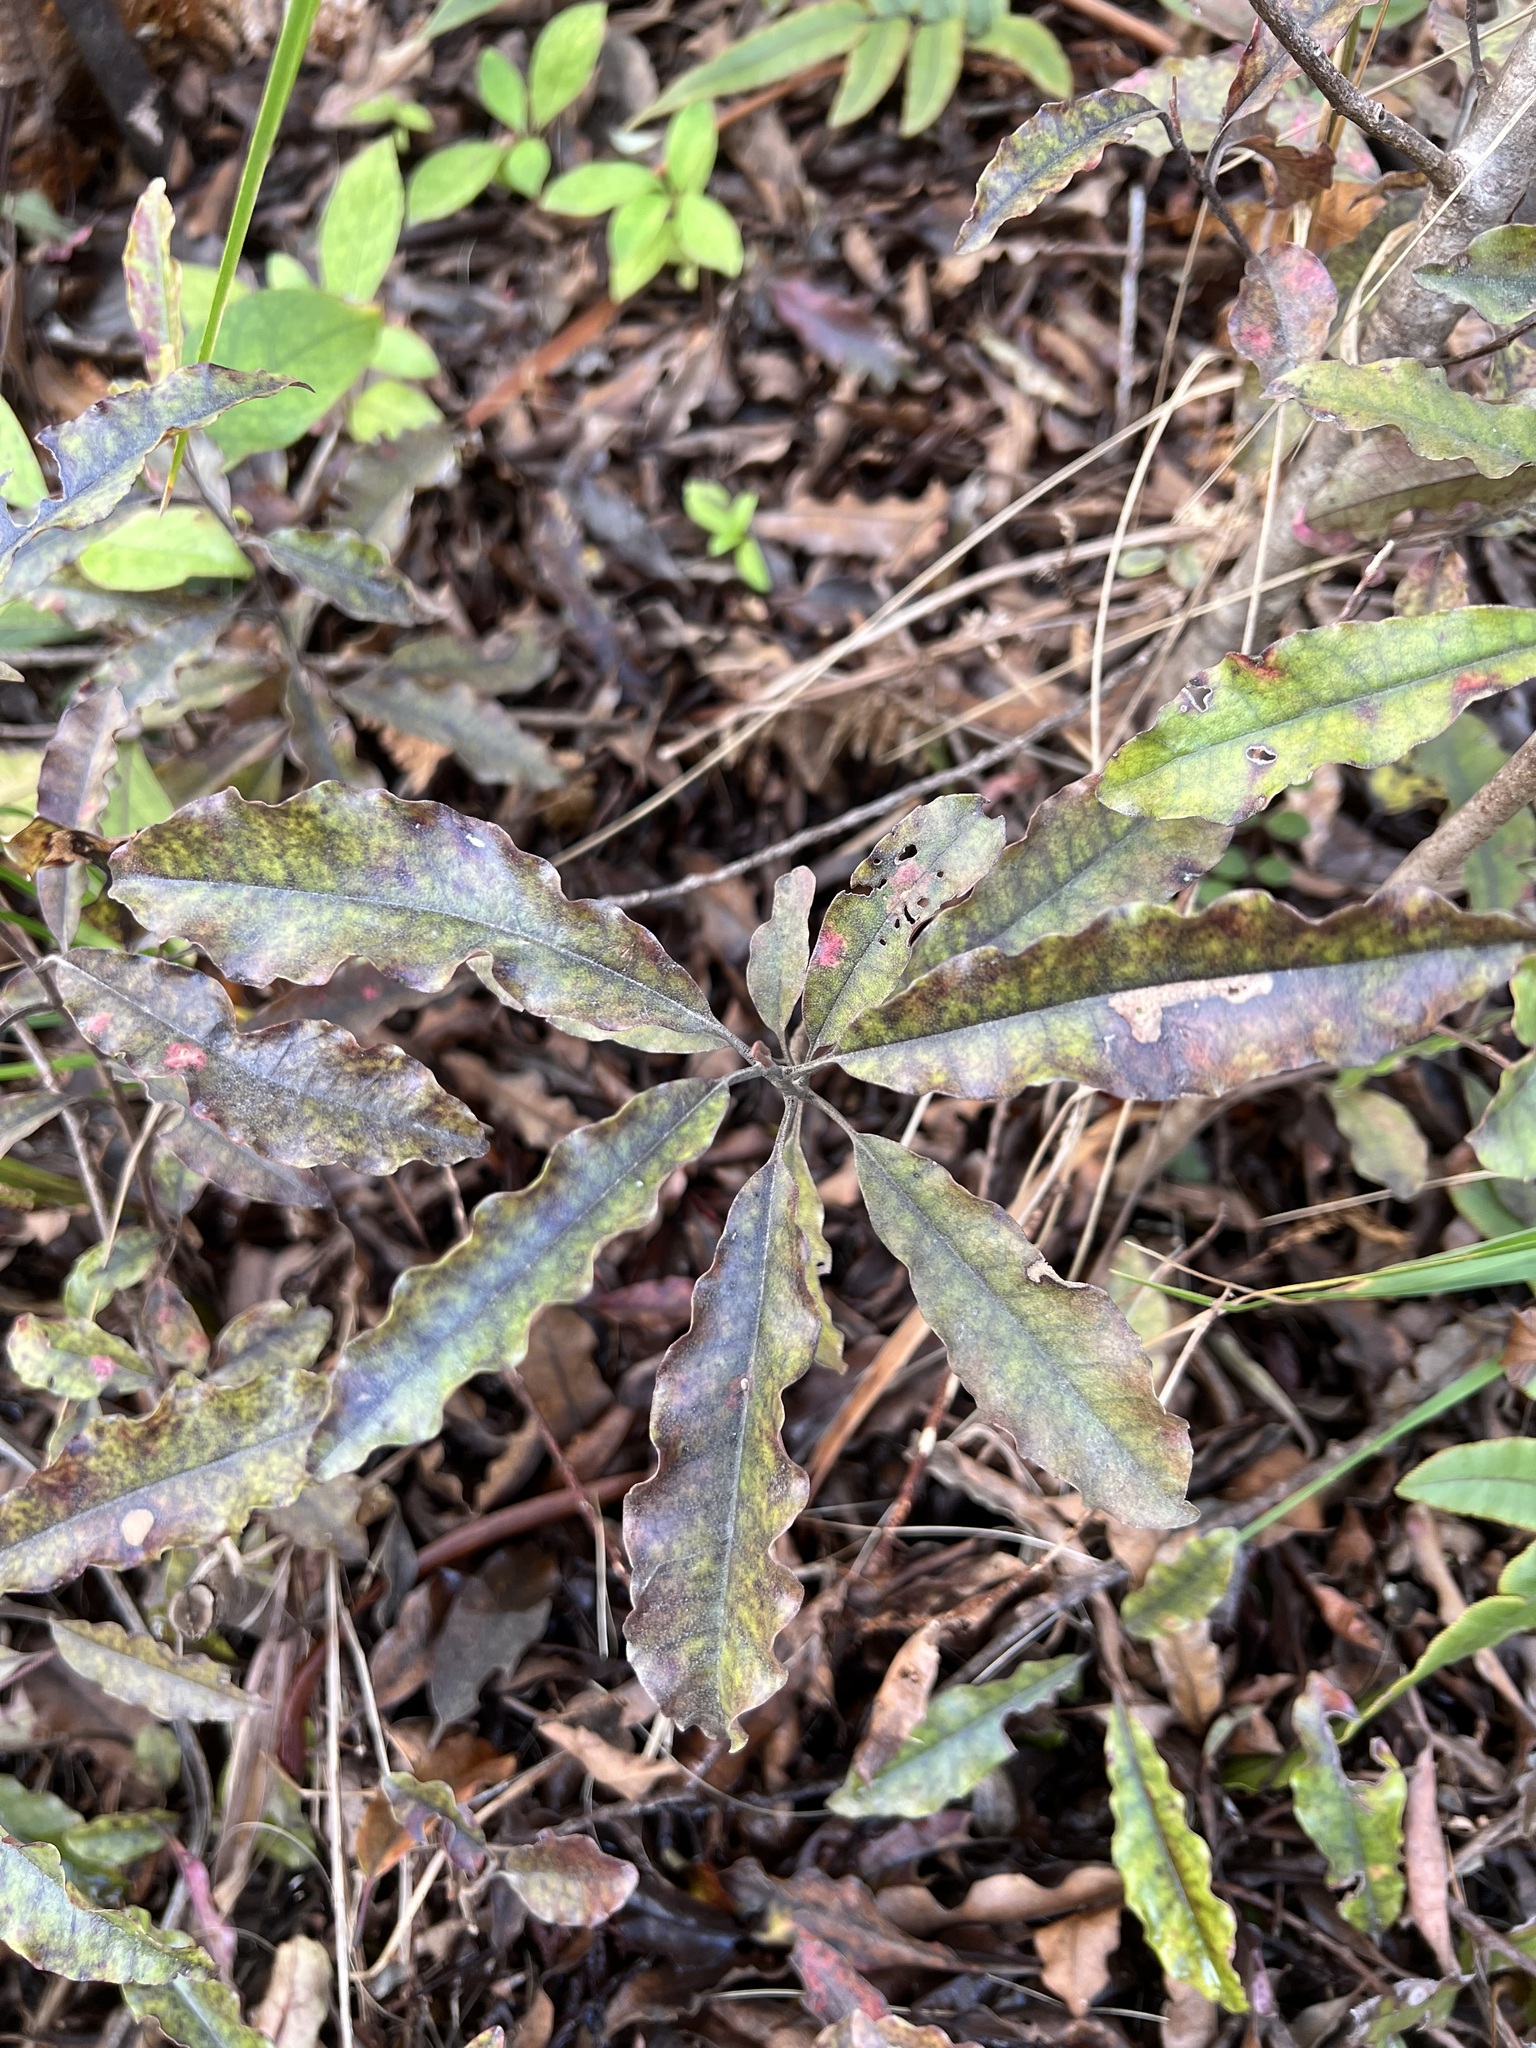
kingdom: Plantae
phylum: Tracheophyta
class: Magnoliopsida
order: Paracryphiales
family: Paracryphiaceae
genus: Quintinia
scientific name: Quintinia serrata
